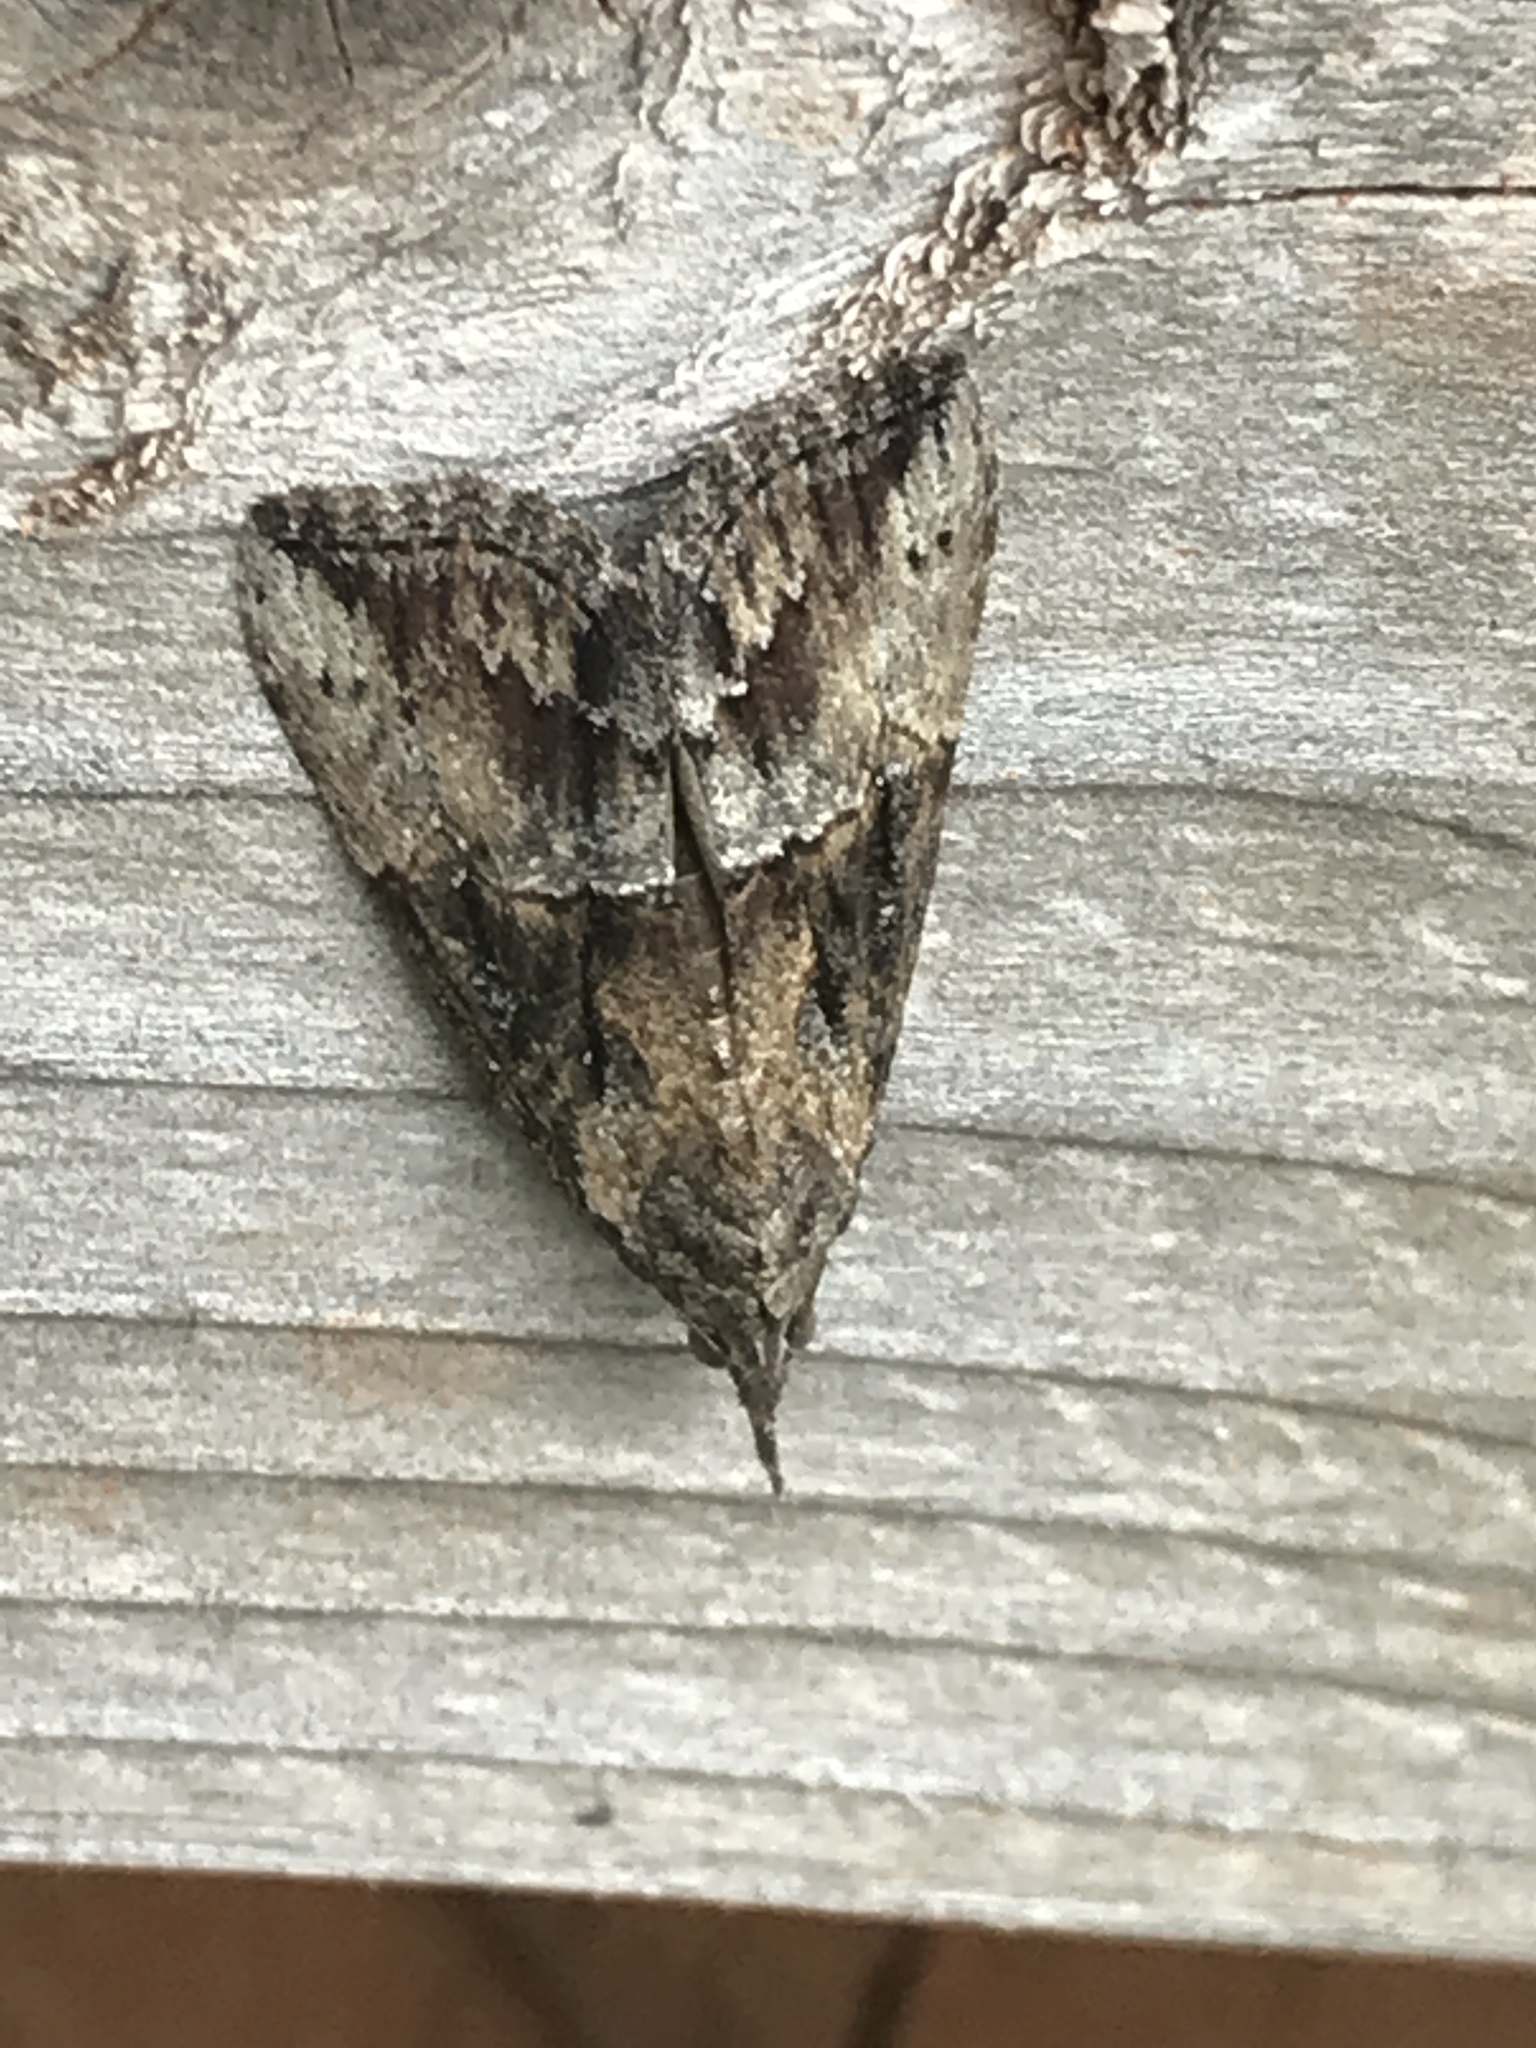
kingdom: Animalia
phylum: Arthropoda
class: Insecta
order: Lepidoptera
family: Erebidae
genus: Hypena
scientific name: Hypena scabra
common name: Green cloverworm
